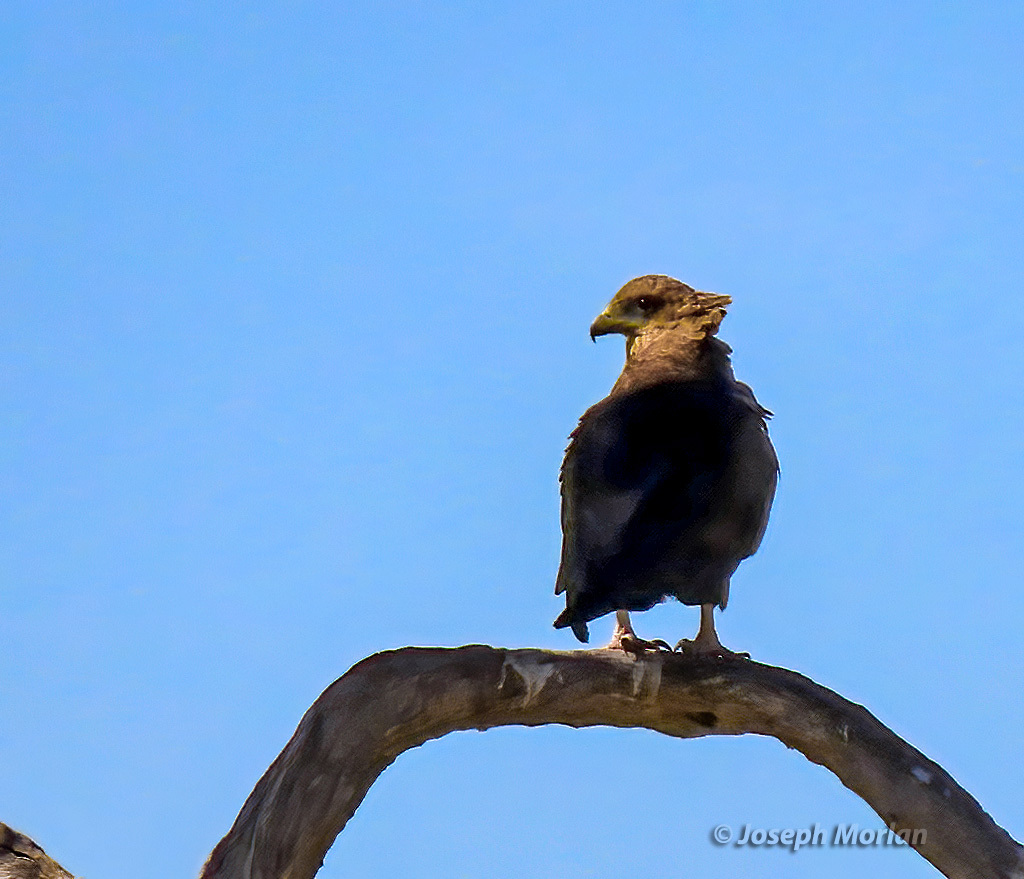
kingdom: Animalia
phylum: Chordata
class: Aves
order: Accipitriformes
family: Accipitridae
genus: Terathopius
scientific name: Terathopius ecaudatus
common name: Bateleur
